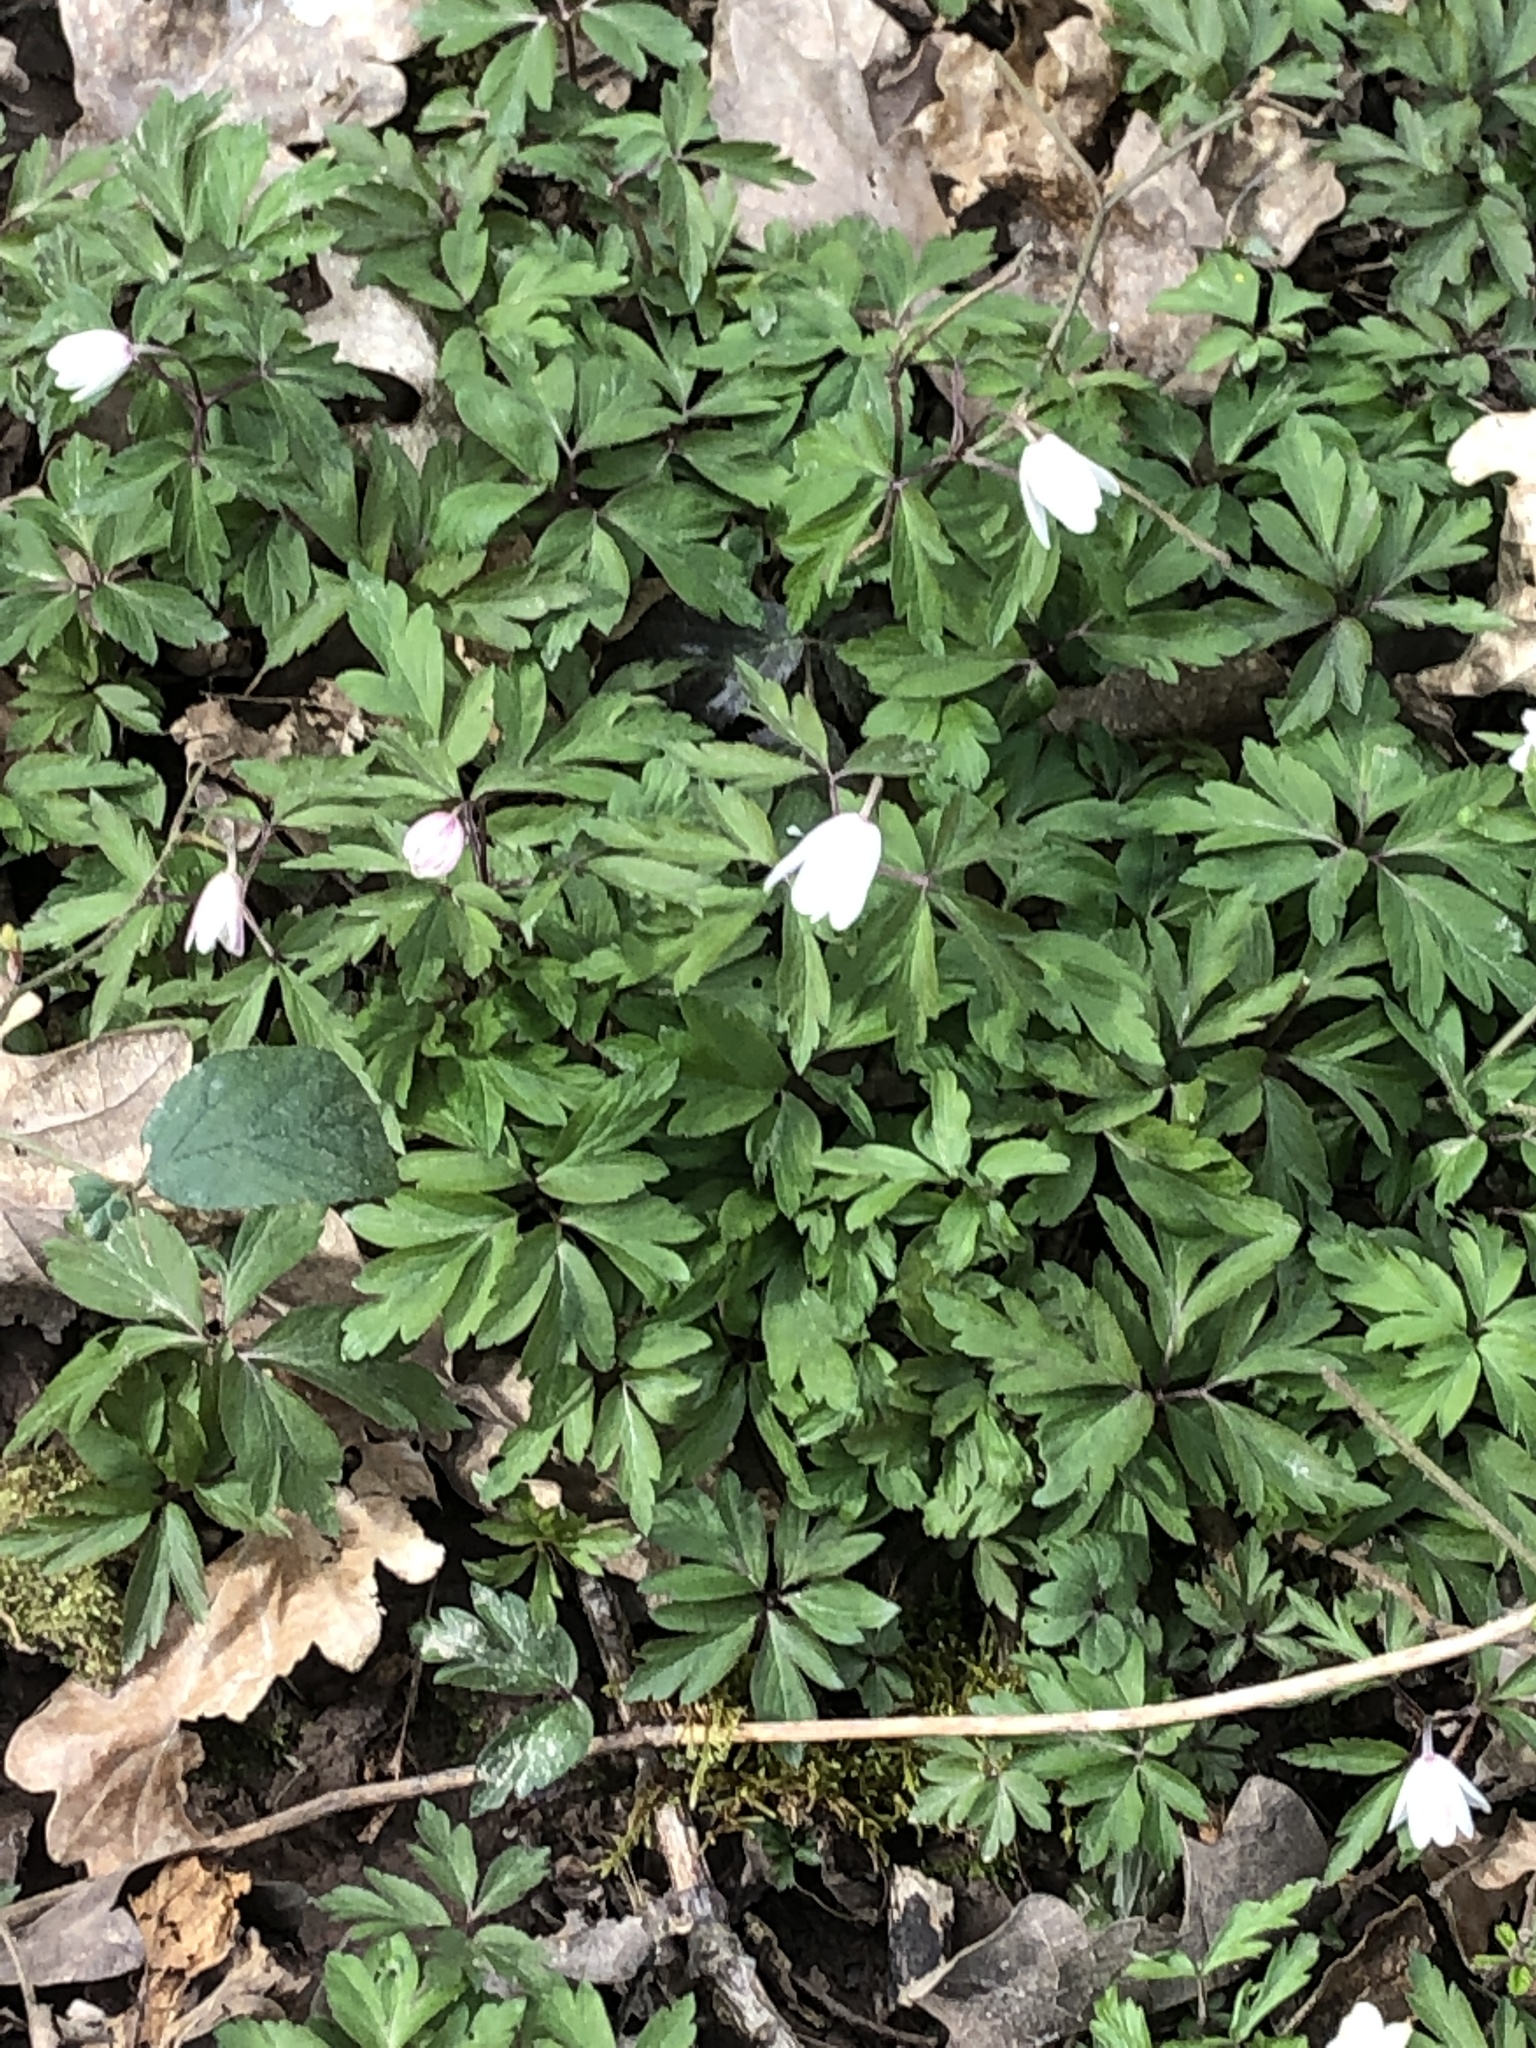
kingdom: Plantae
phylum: Tracheophyta
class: Magnoliopsida
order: Ranunculales
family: Ranunculaceae
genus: Anemone
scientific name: Anemone nemorosa
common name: Wood anemone
